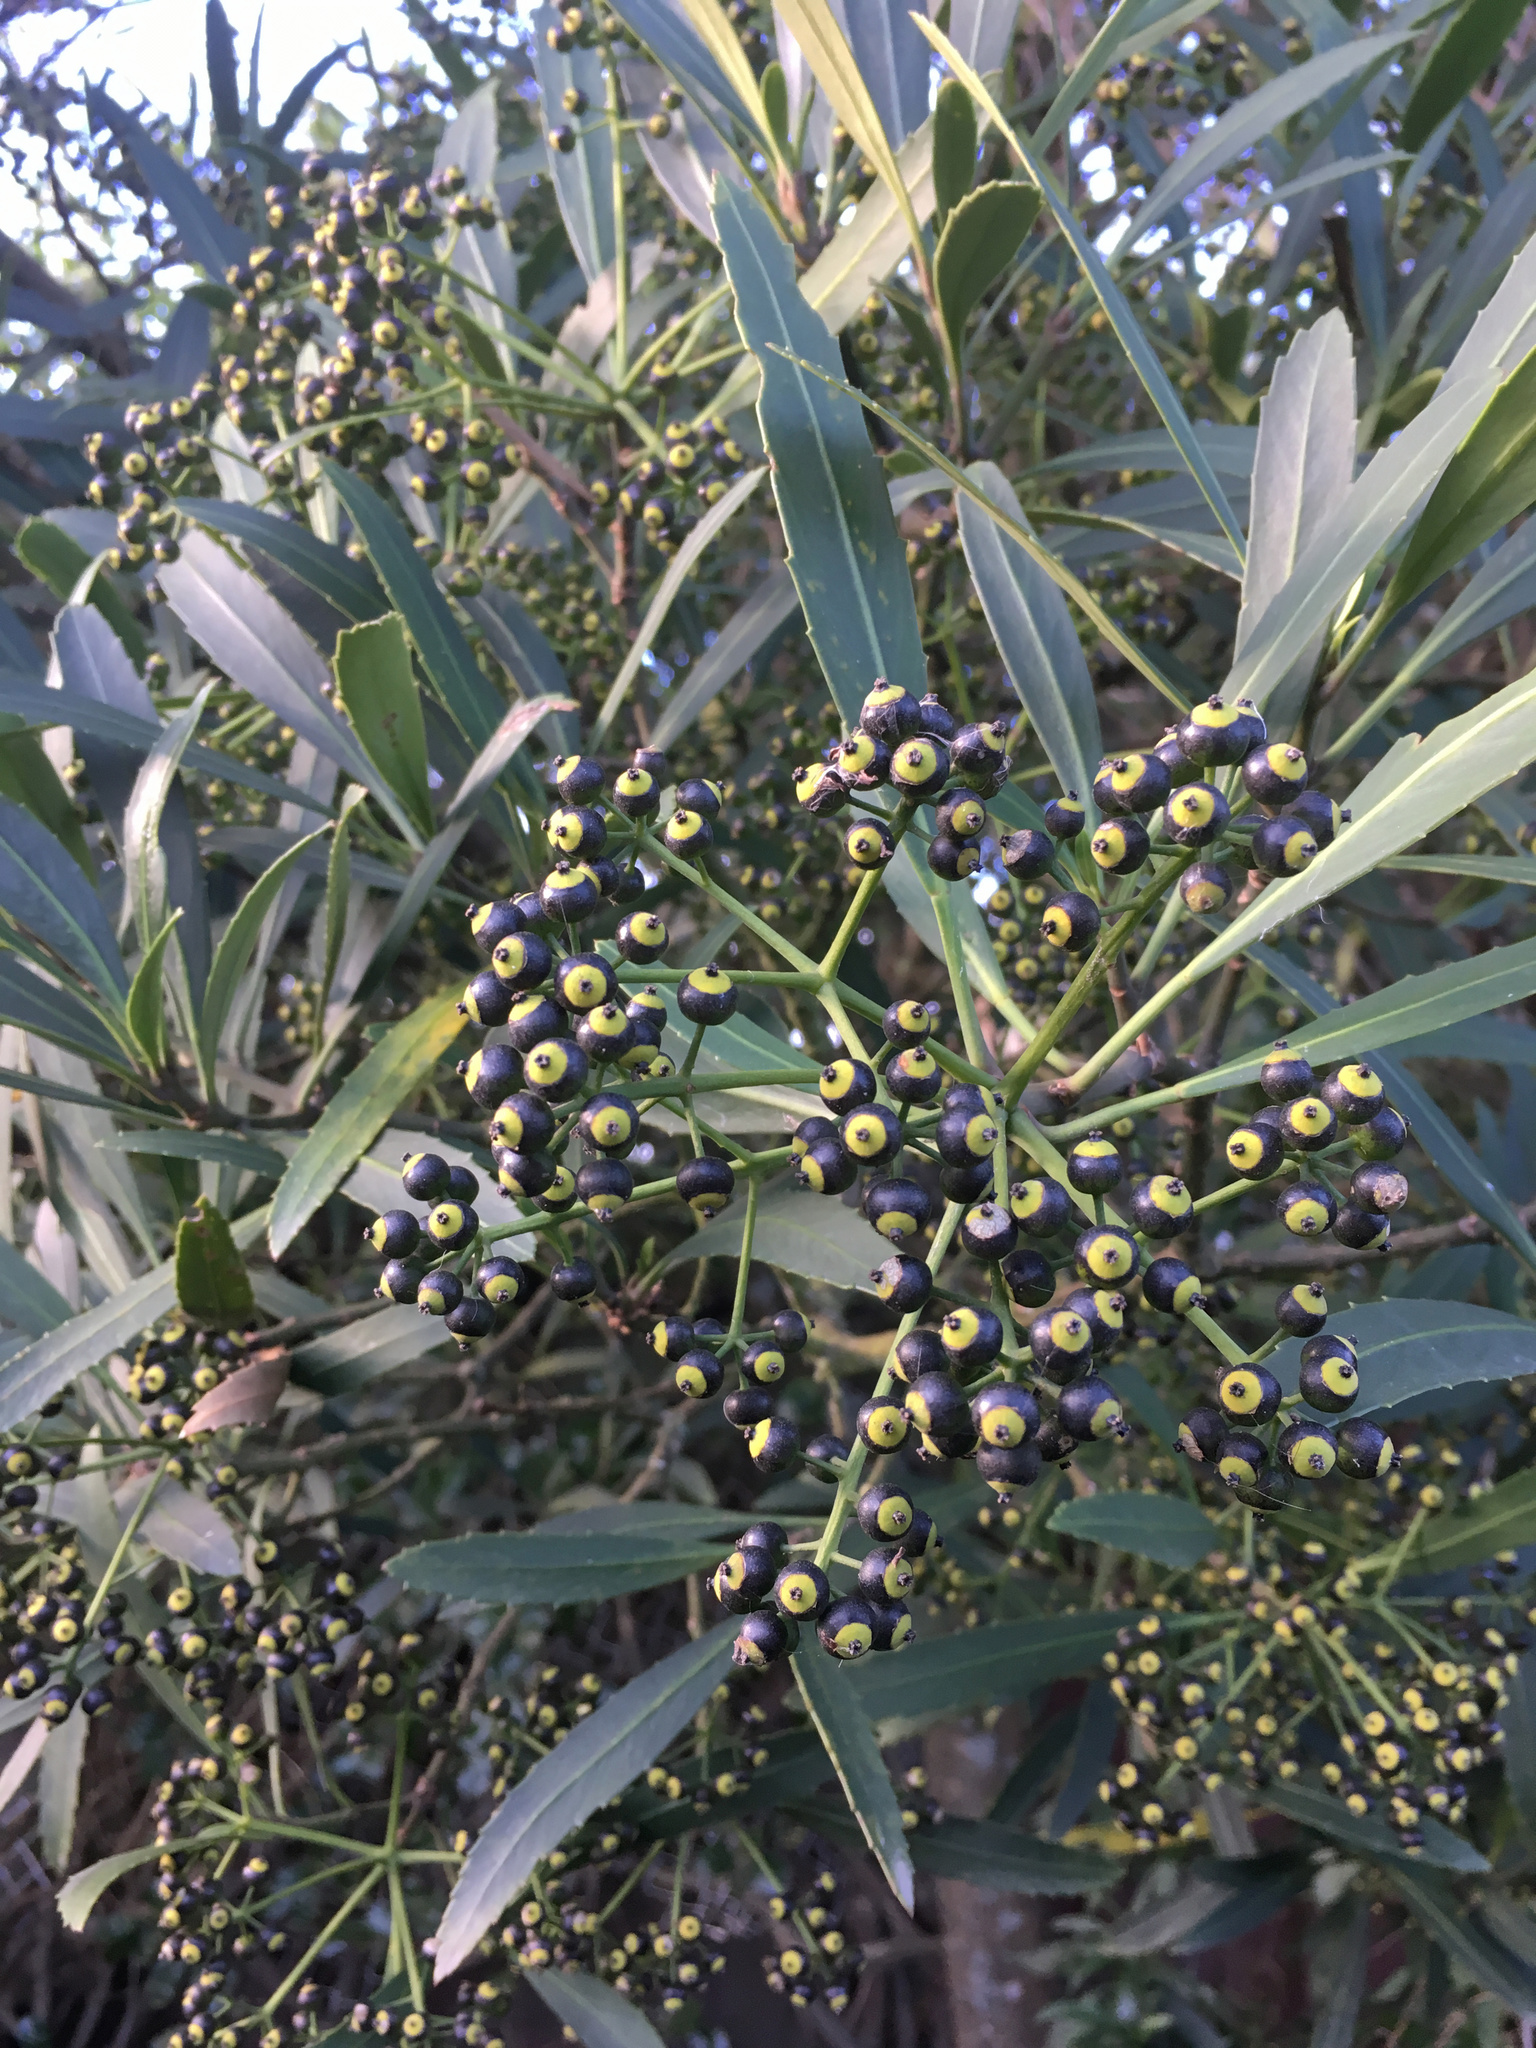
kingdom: Plantae
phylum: Tracheophyta
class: Magnoliopsida
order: Apiales
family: Araliaceae
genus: Pseudopanax
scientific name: Pseudopanax crassifolius
